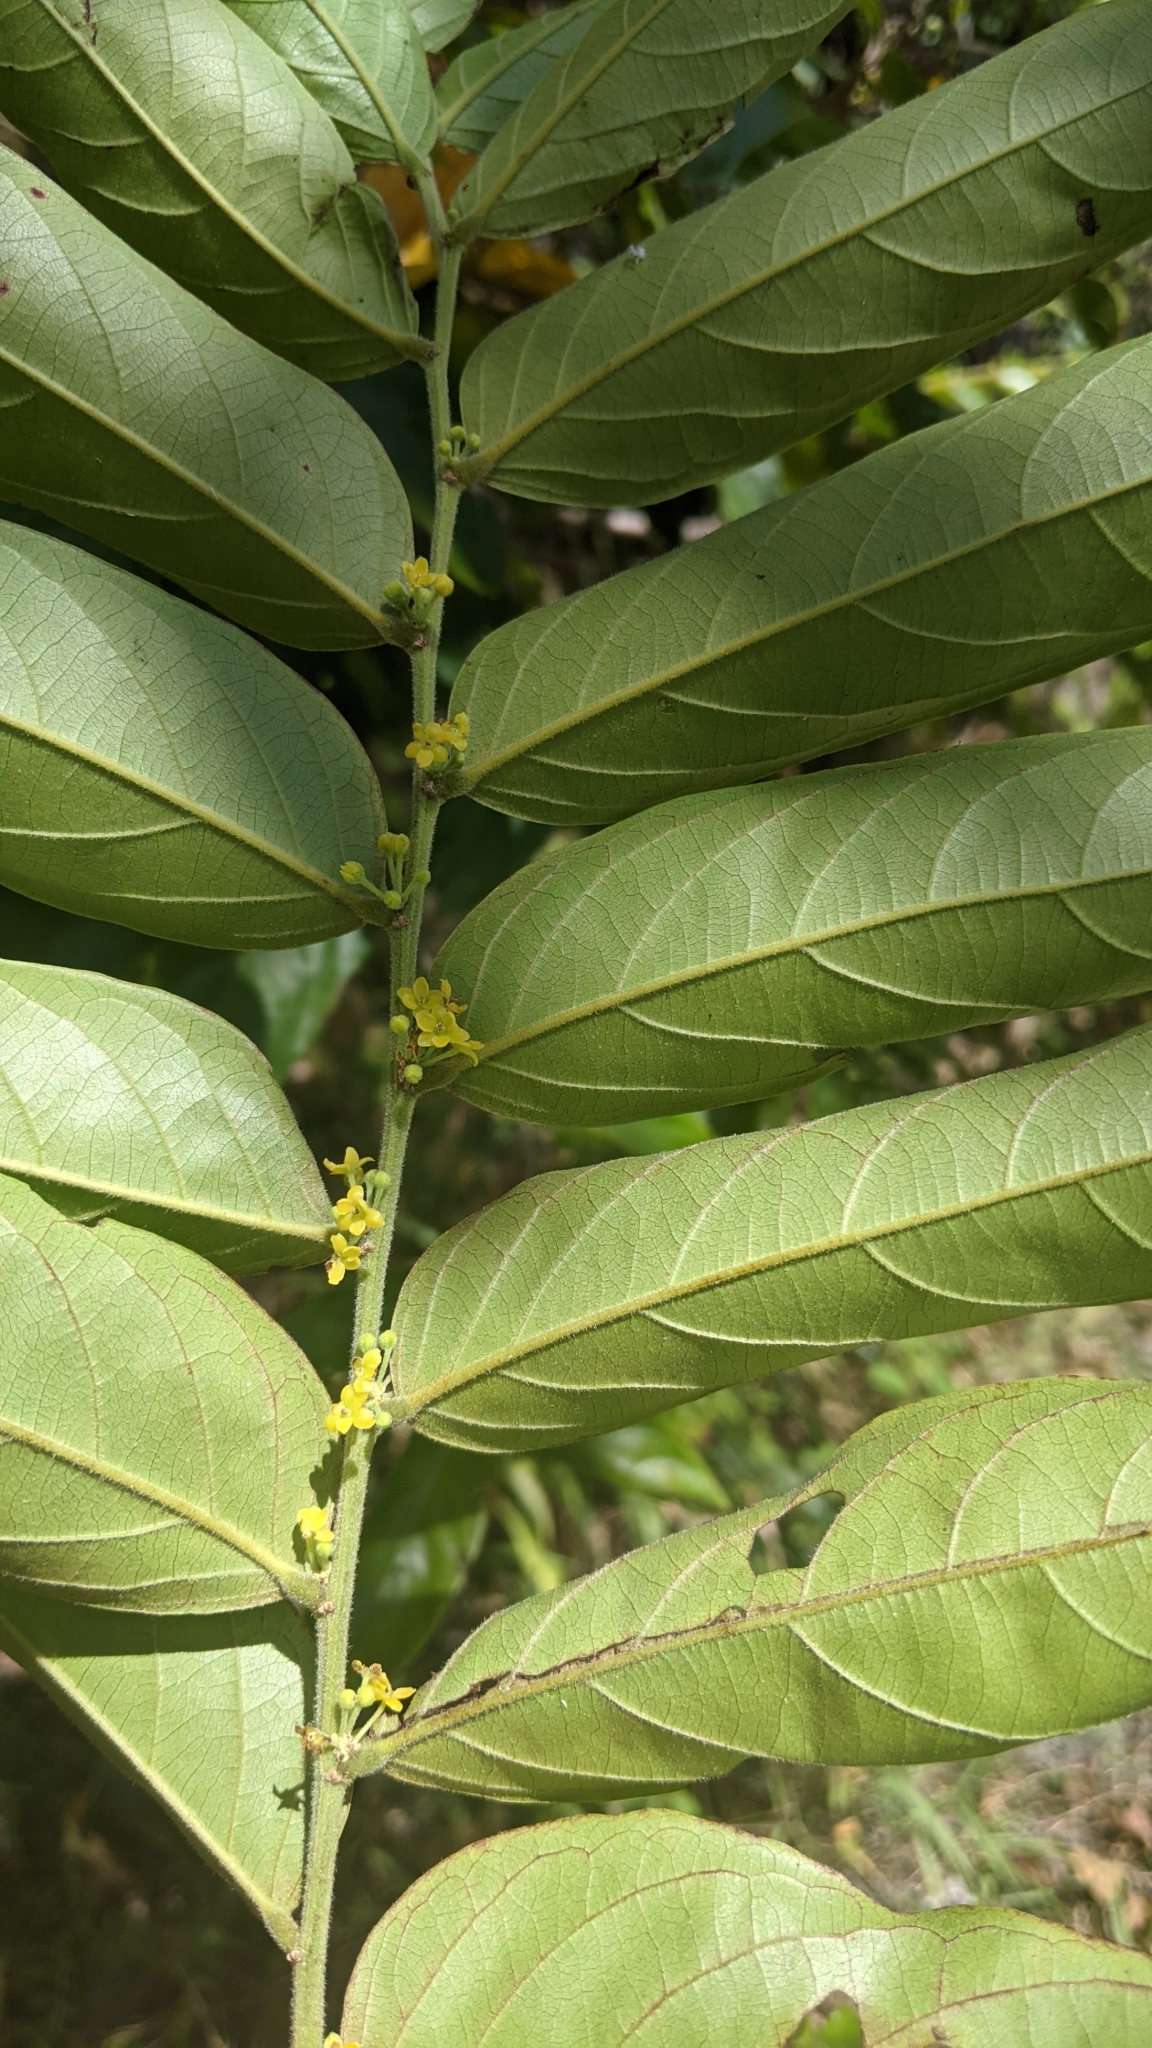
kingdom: Plantae
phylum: Tracheophyta
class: Magnoliopsida
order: Malpighiales
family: Phyllanthaceae
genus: Glochidion
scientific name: Glochidion philippicum
